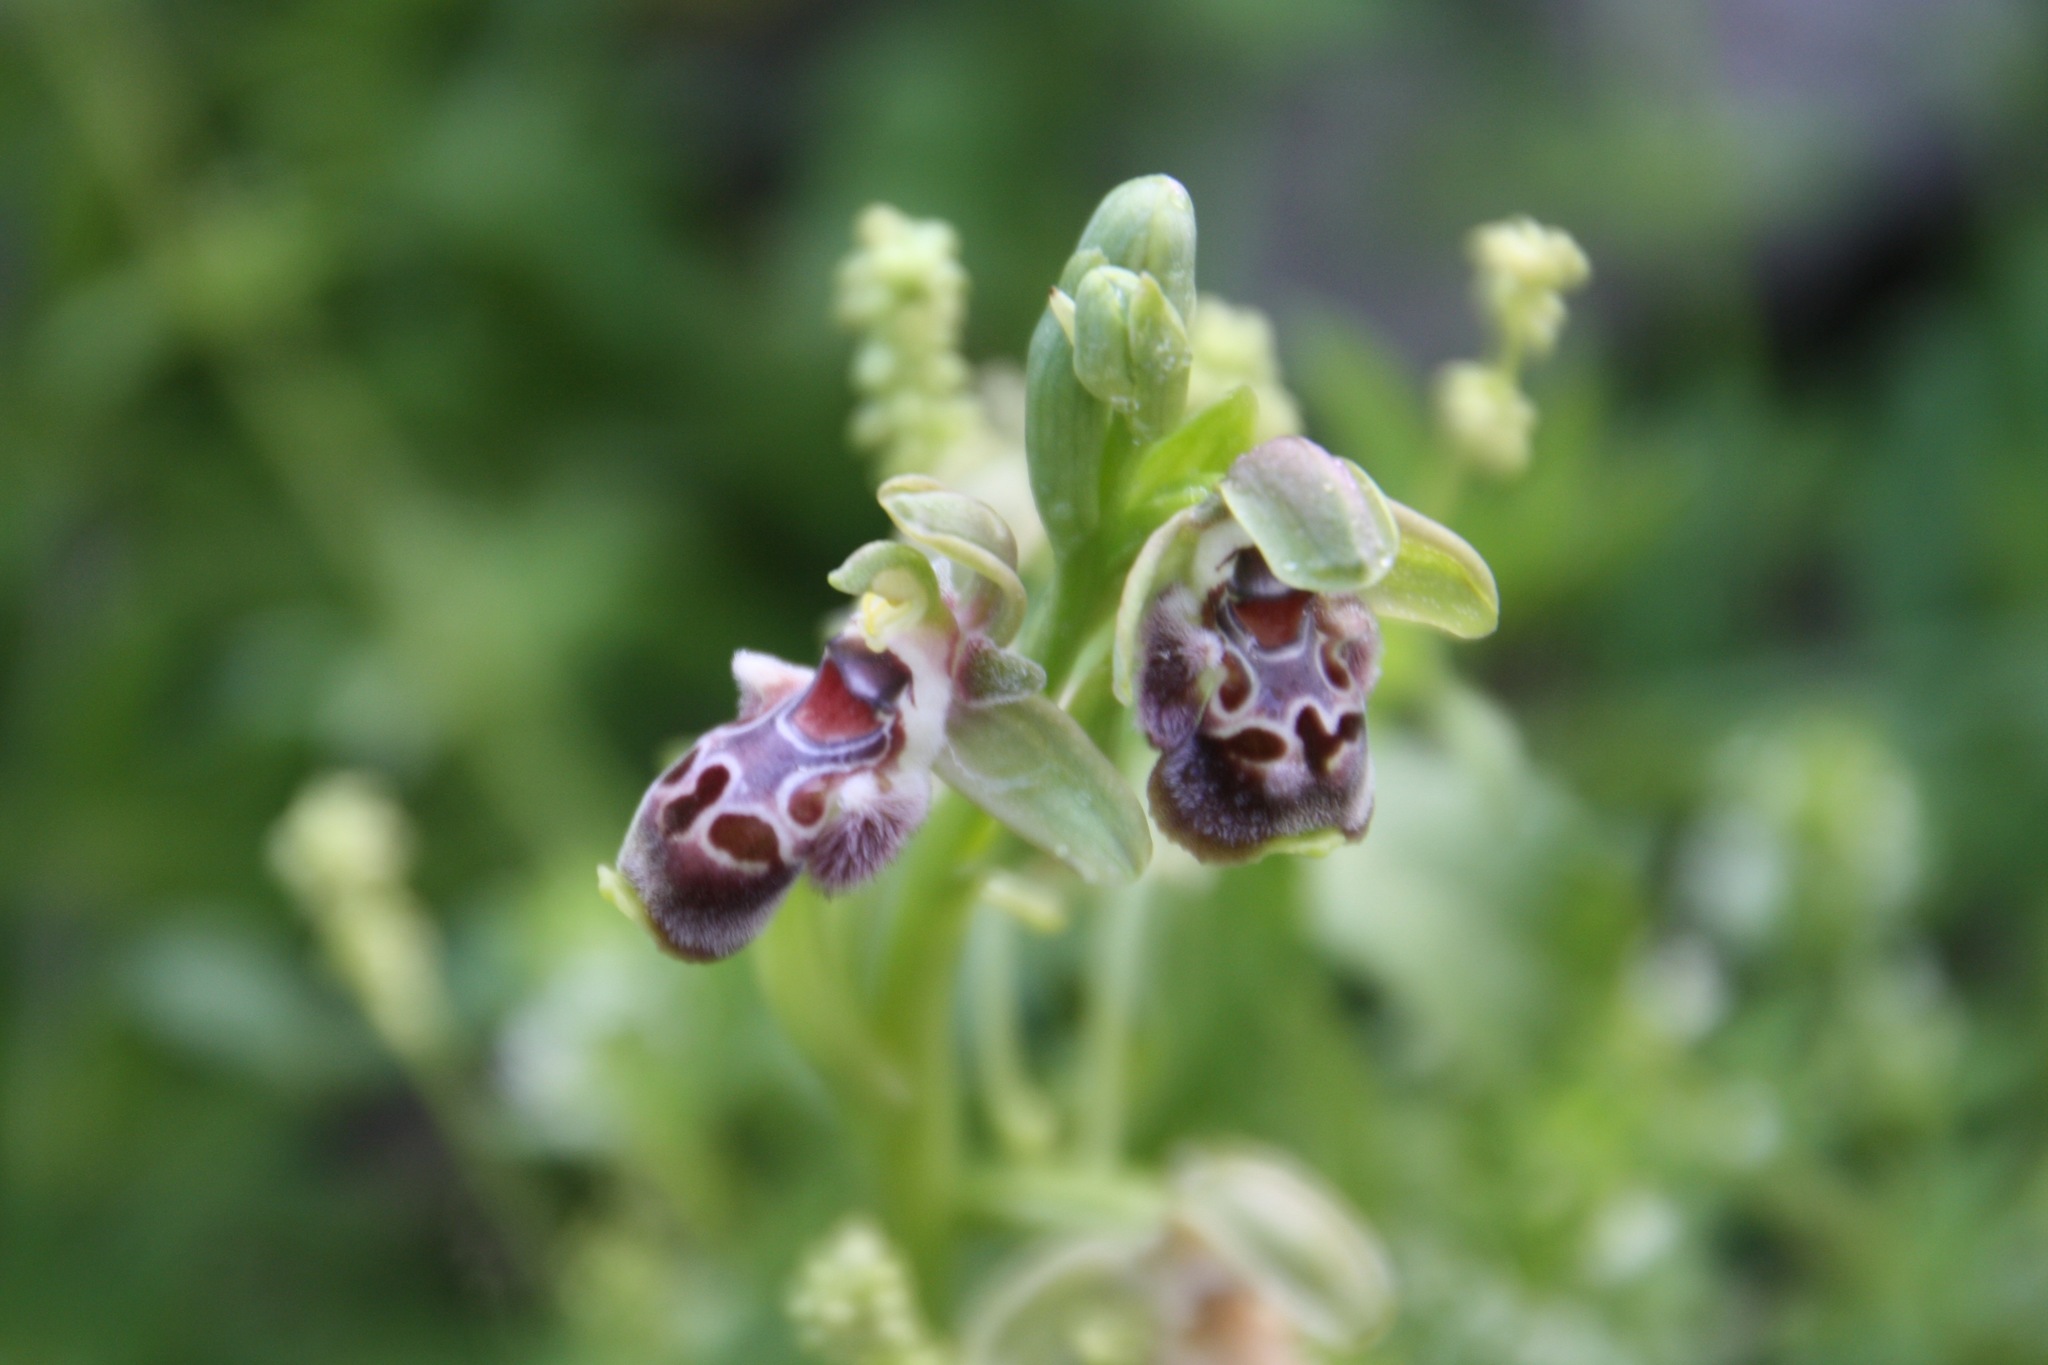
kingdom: Plantae
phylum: Tracheophyta
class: Liliopsida
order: Asparagales
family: Orchidaceae
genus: Ophrys
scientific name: Ophrys umbilicata
